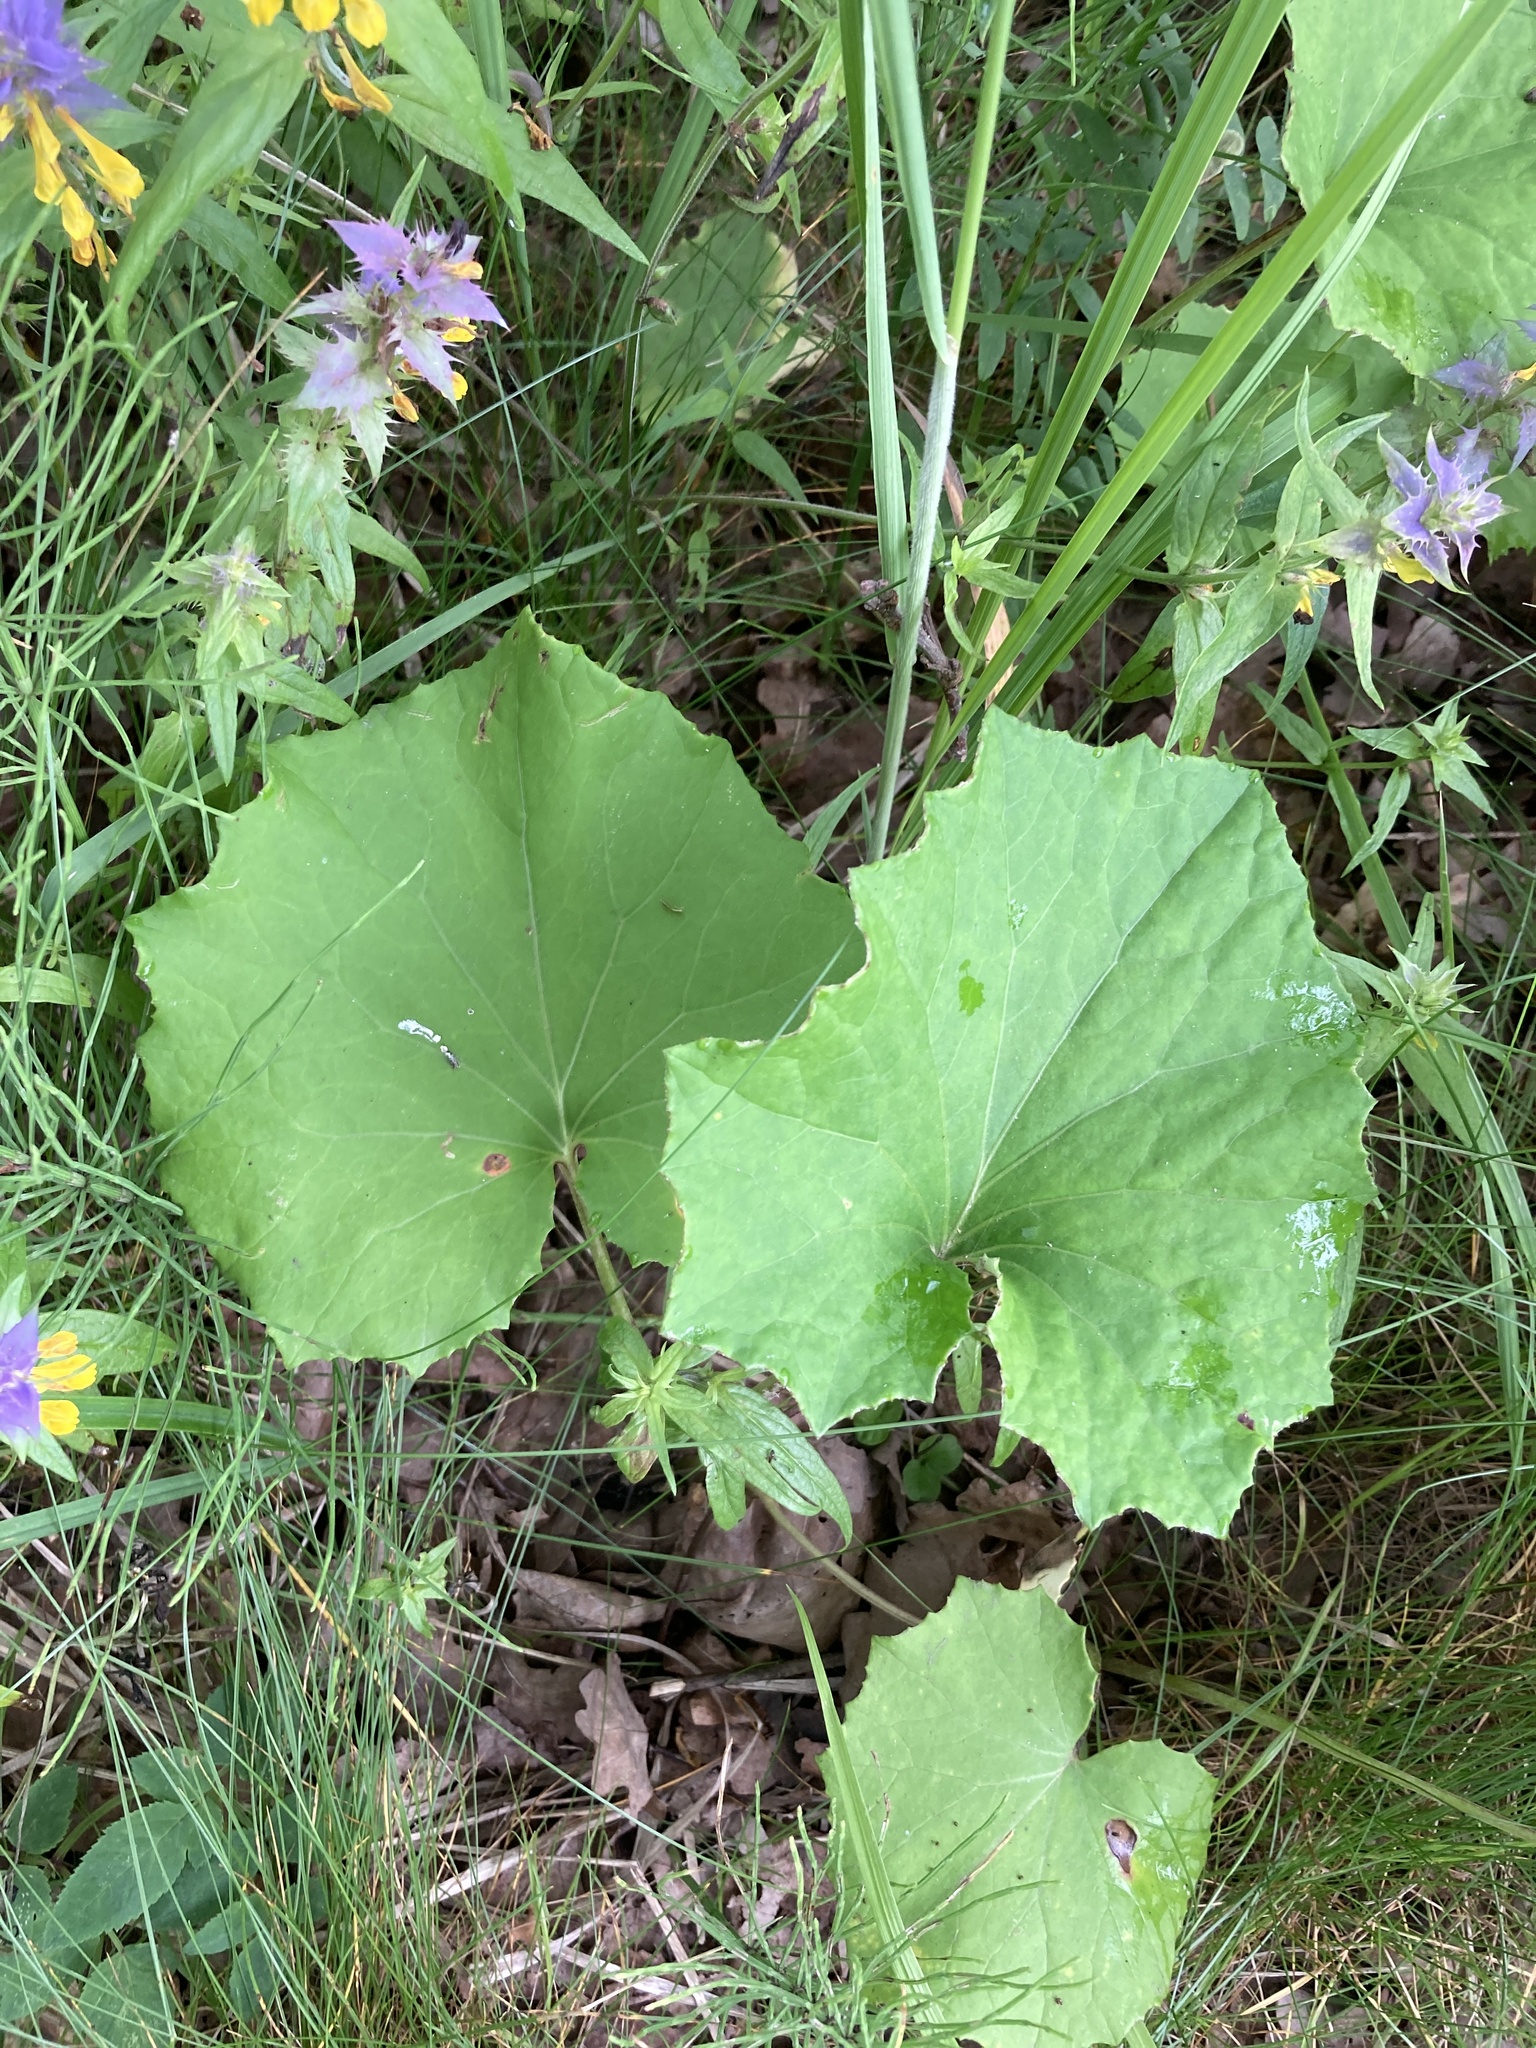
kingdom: Plantae
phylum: Tracheophyta
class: Magnoliopsida
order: Asterales
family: Asteraceae
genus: Tussilago
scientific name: Tussilago farfara
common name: Coltsfoot
